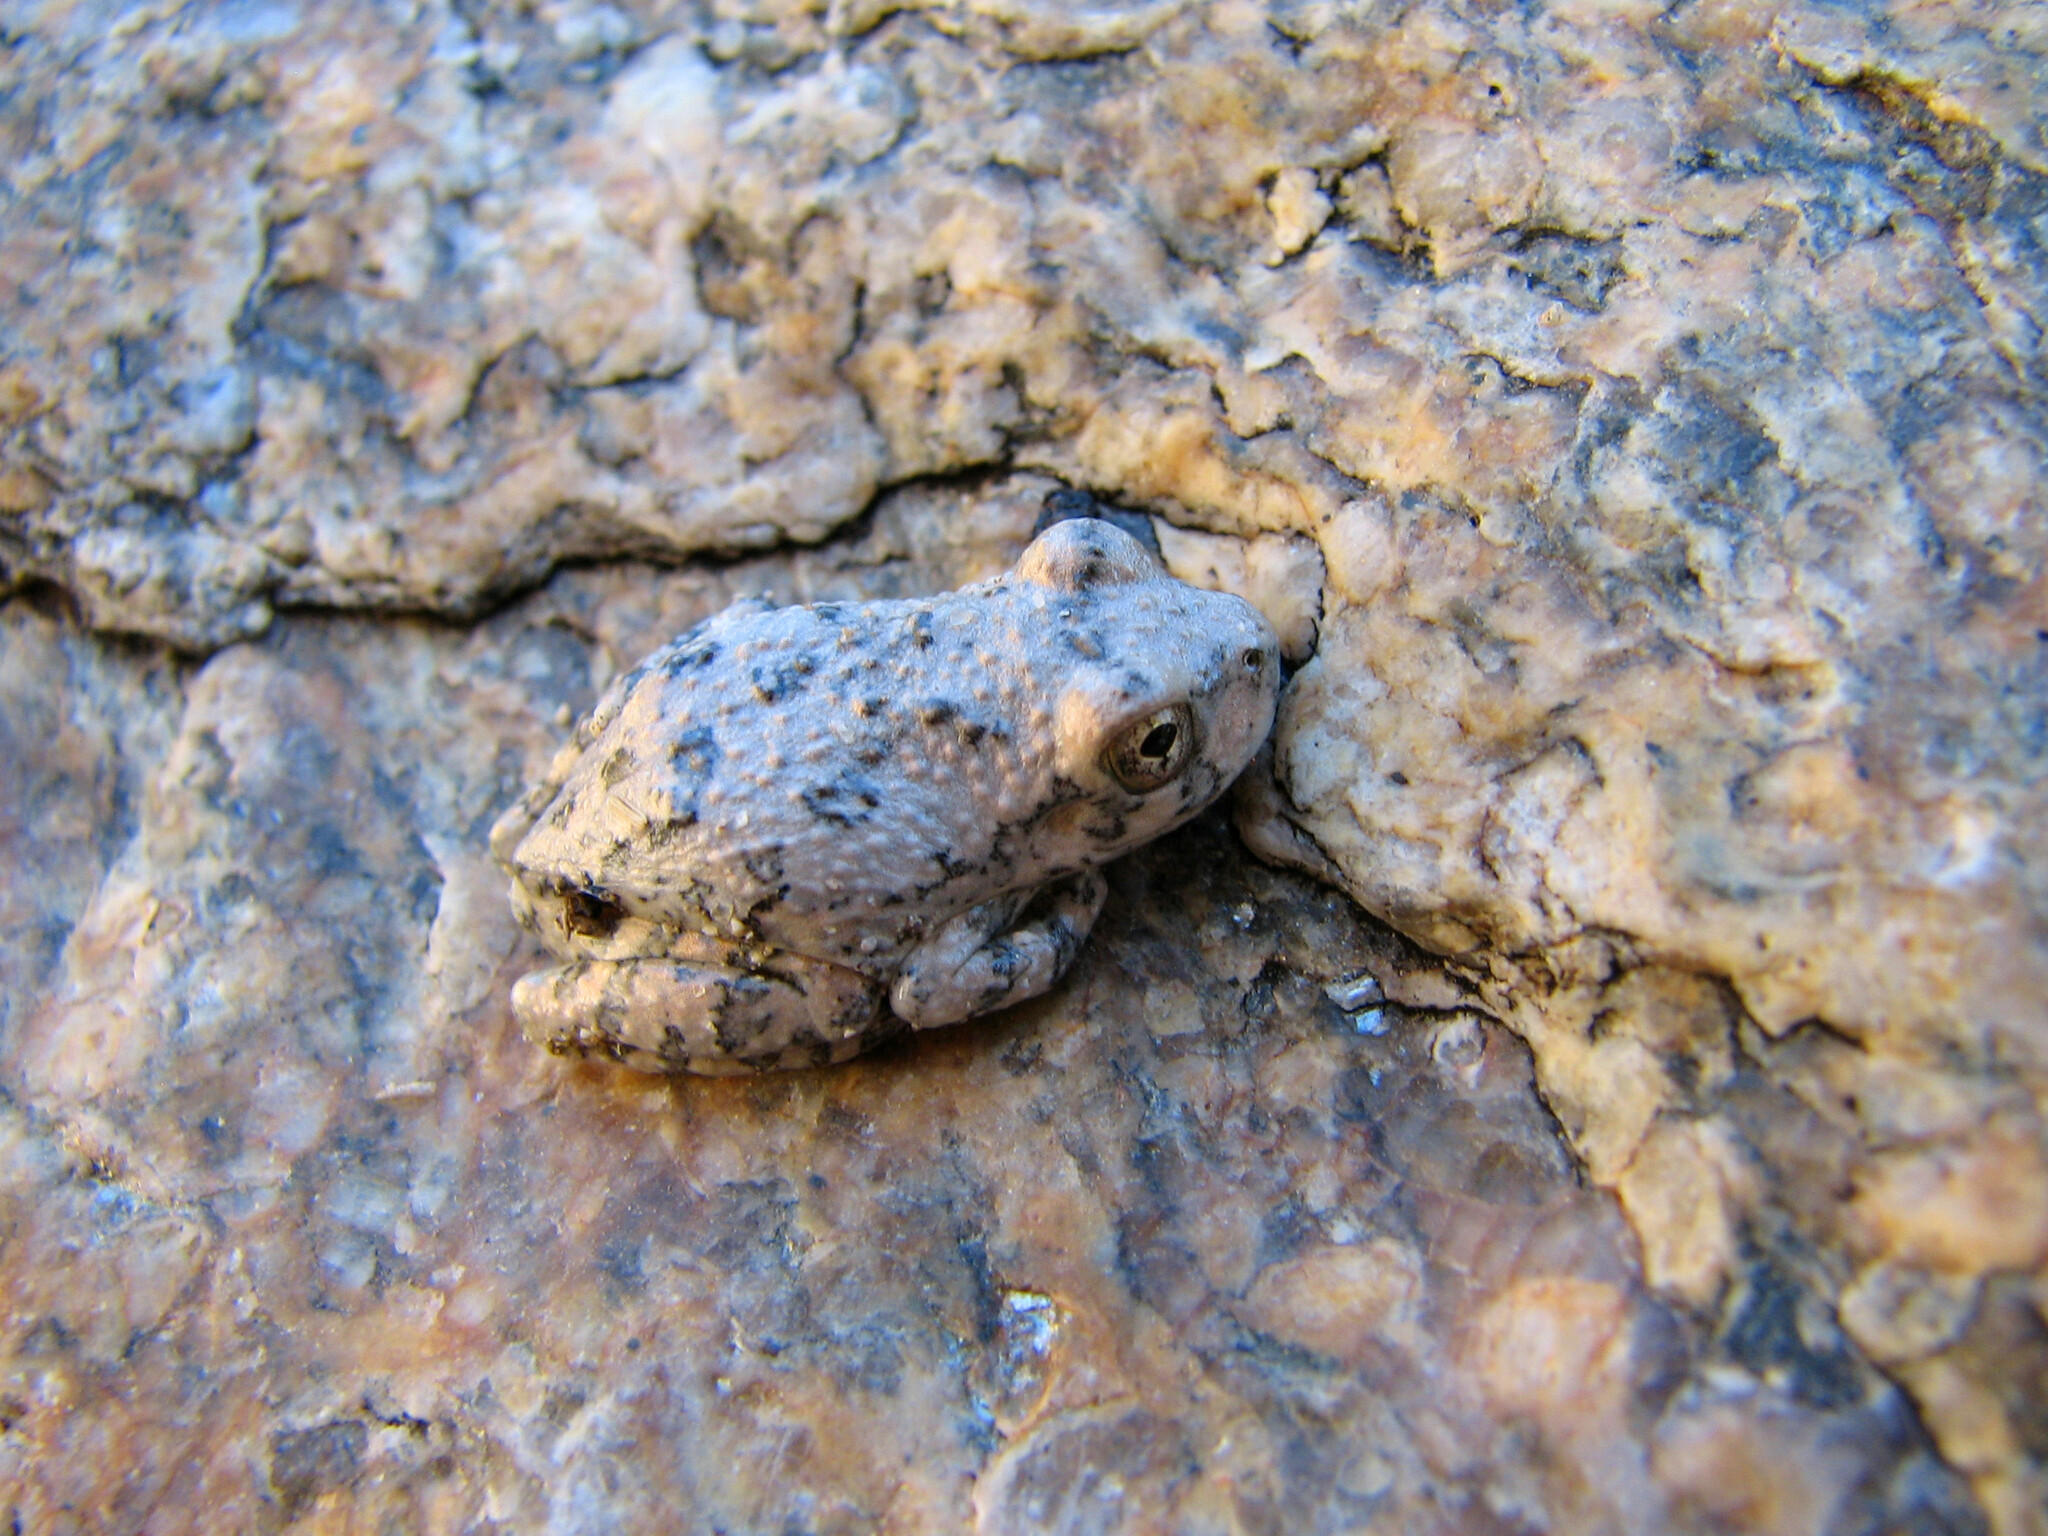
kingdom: Animalia
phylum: Chordata
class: Amphibia
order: Anura
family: Hylidae
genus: Dryophytes
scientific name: Dryophytes arenicolor
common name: Canyon treefrog
